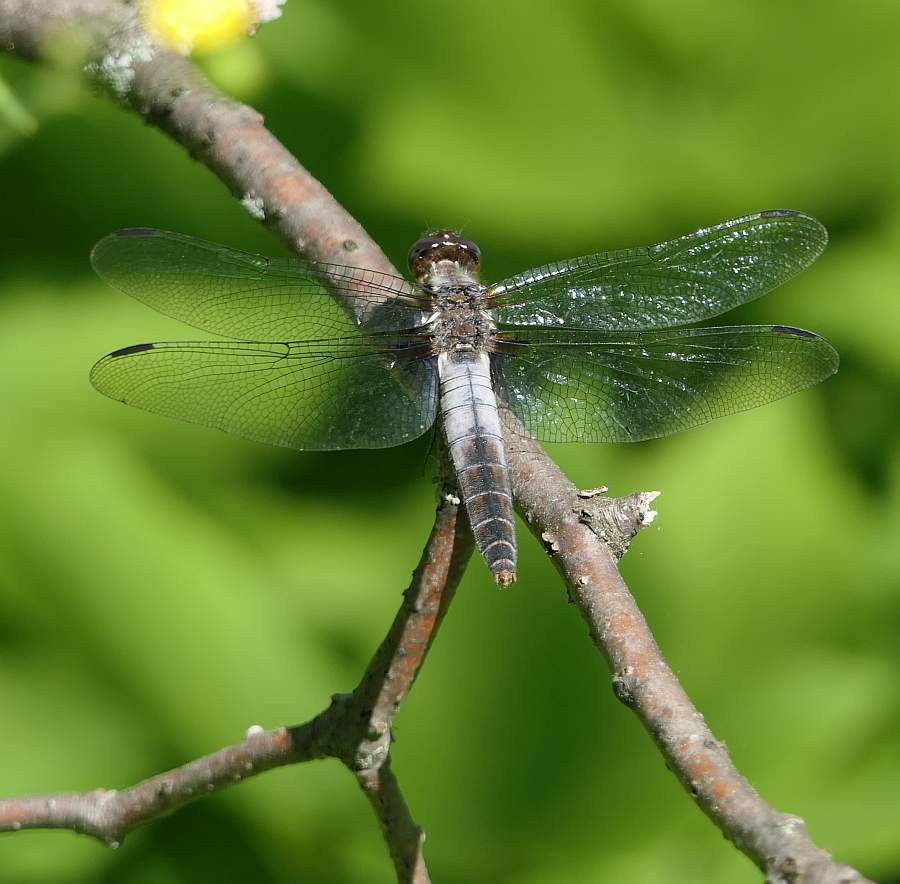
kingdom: Animalia
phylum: Arthropoda
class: Insecta
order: Odonata
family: Libellulidae
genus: Ladona
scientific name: Ladona julia
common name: Chalk-fronted corporal
